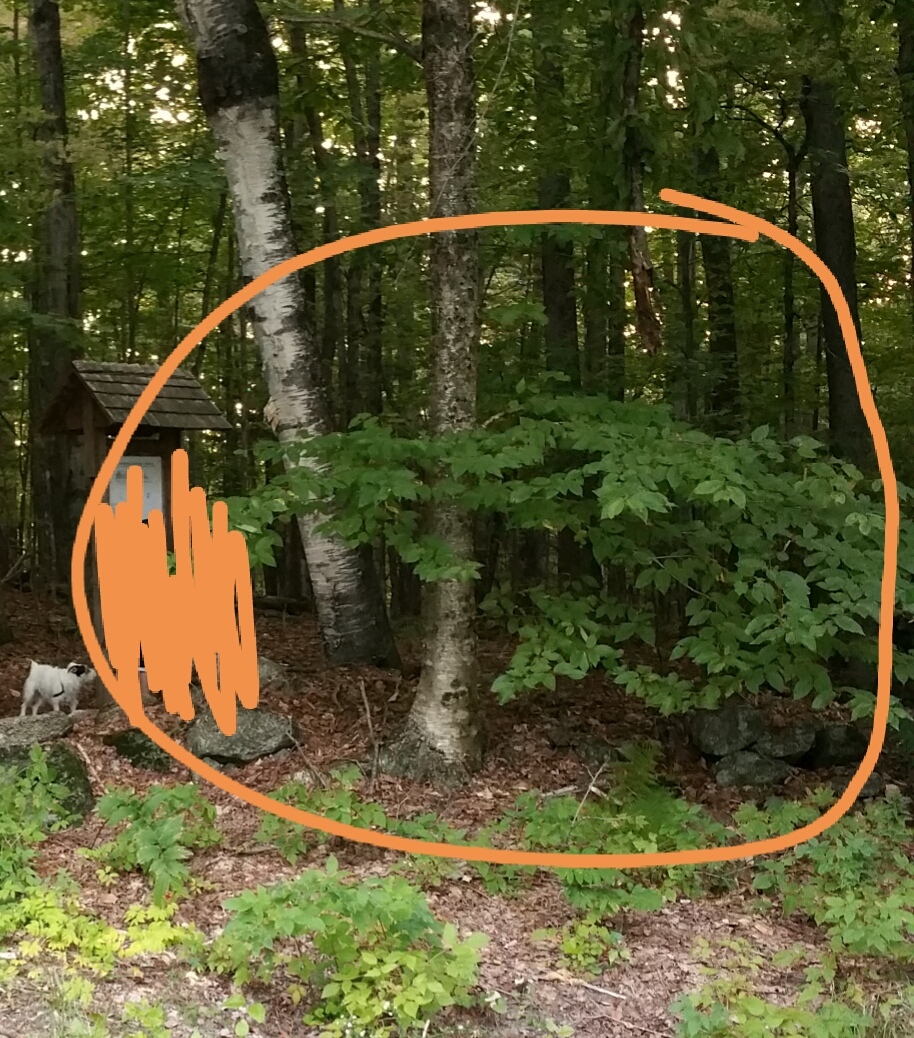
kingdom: Plantae
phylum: Tracheophyta
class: Magnoliopsida
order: Fagales
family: Fagaceae
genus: Fagus
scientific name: Fagus grandifolia
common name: American beech
